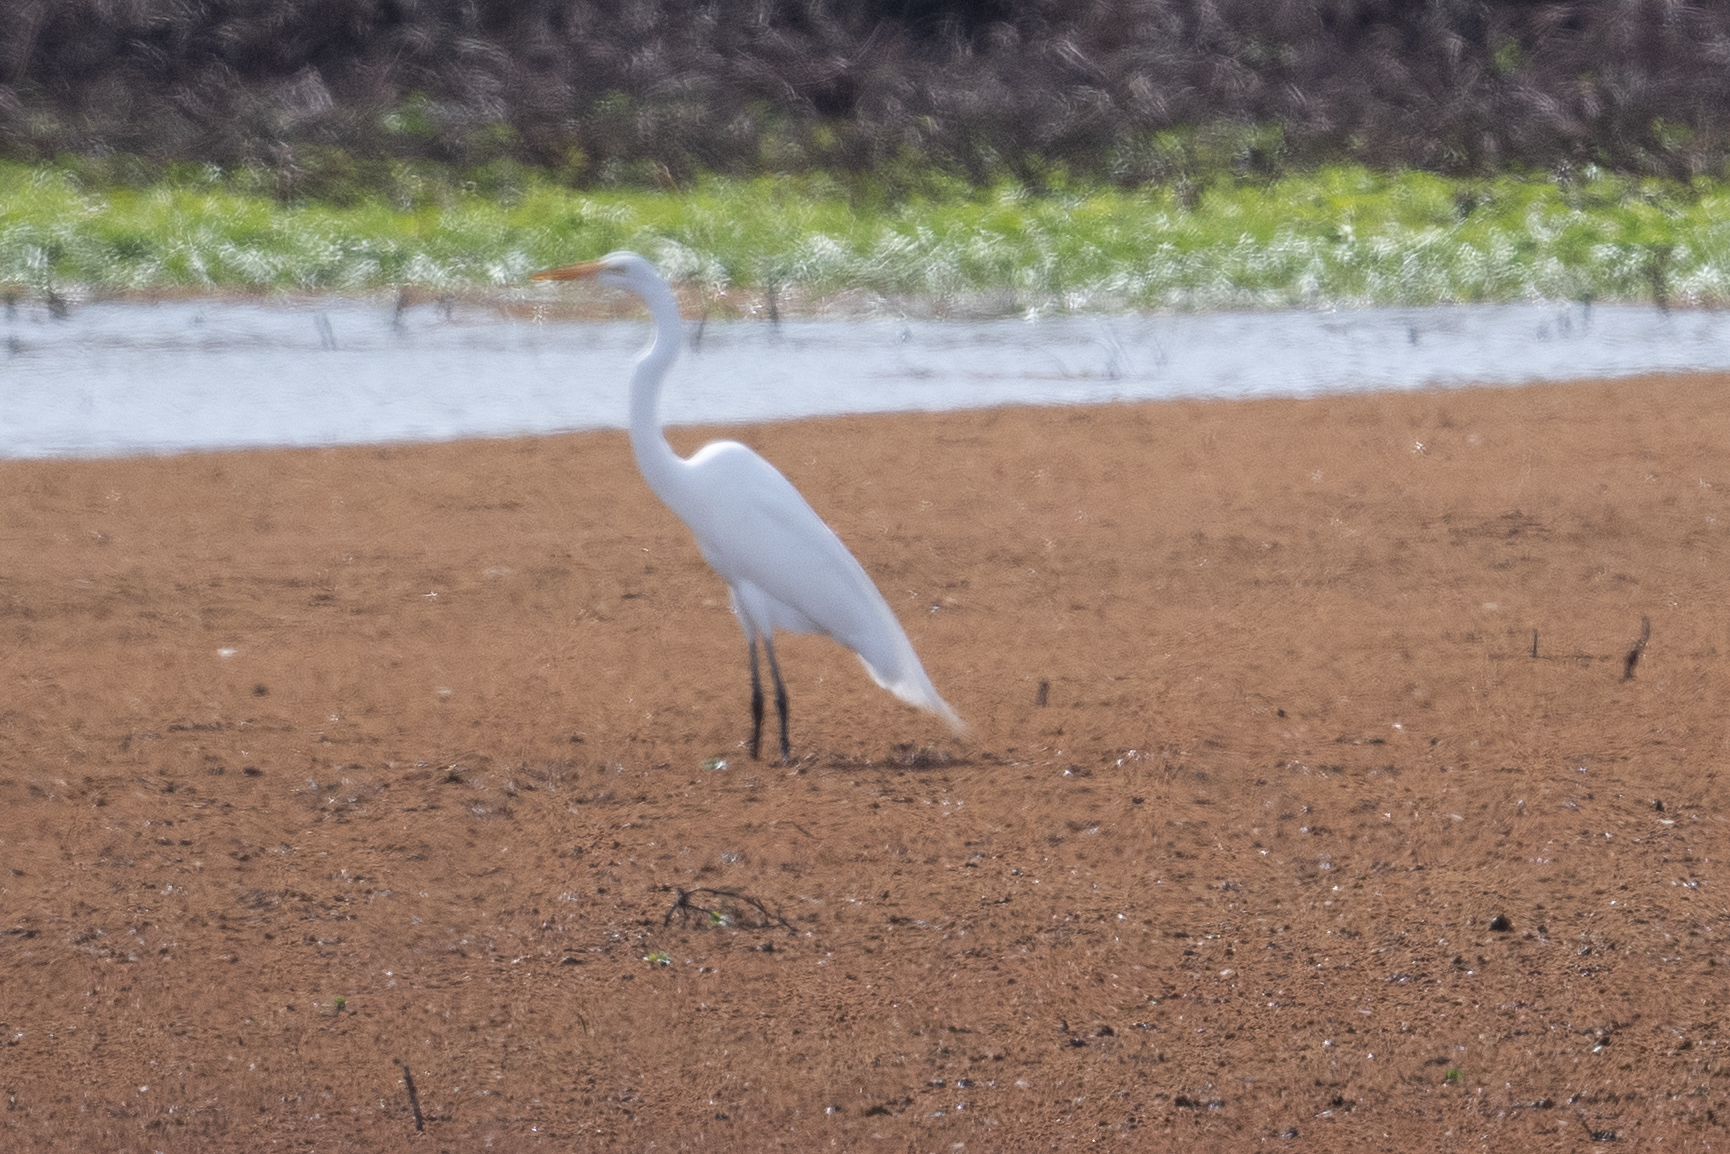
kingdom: Animalia
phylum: Chordata
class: Aves
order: Pelecaniformes
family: Ardeidae
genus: Ardea
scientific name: Ardea alba
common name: Great egret
